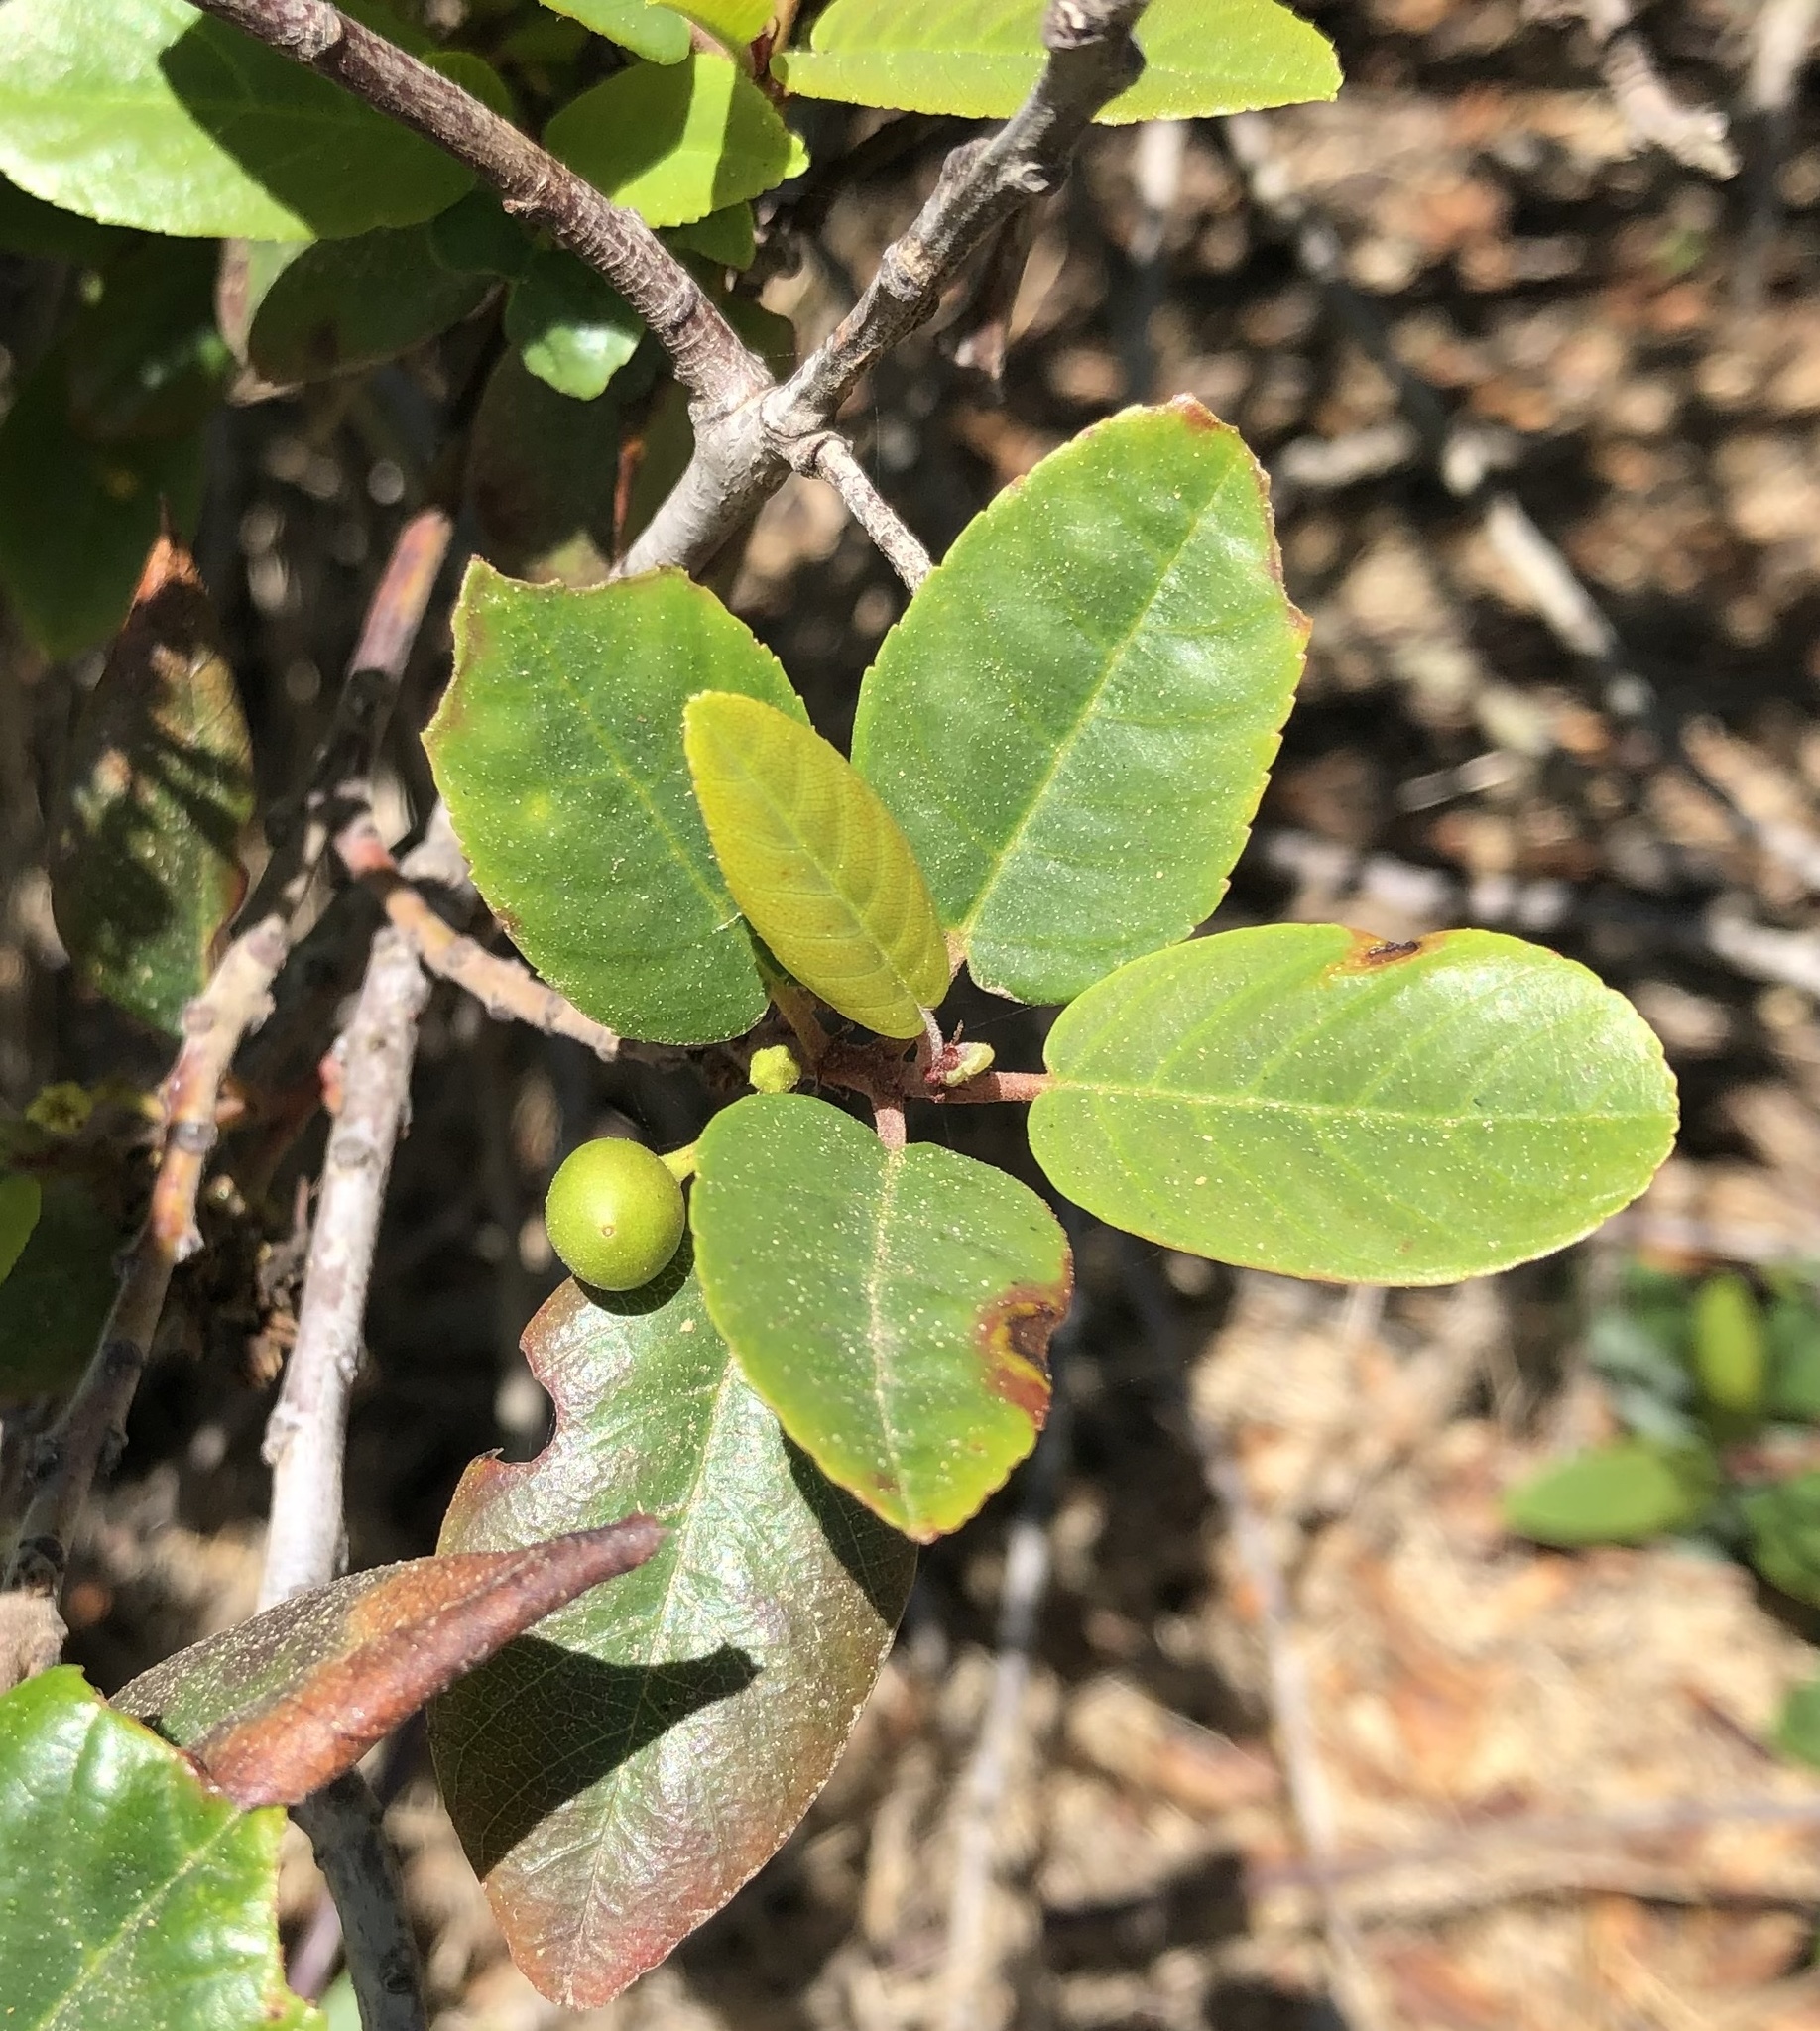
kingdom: Plantae
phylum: Tracheophyta
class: Magnoliopsida
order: Rosales
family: Rhamnaceae
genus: Frangula
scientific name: Frangula californica
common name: California buckthorn
